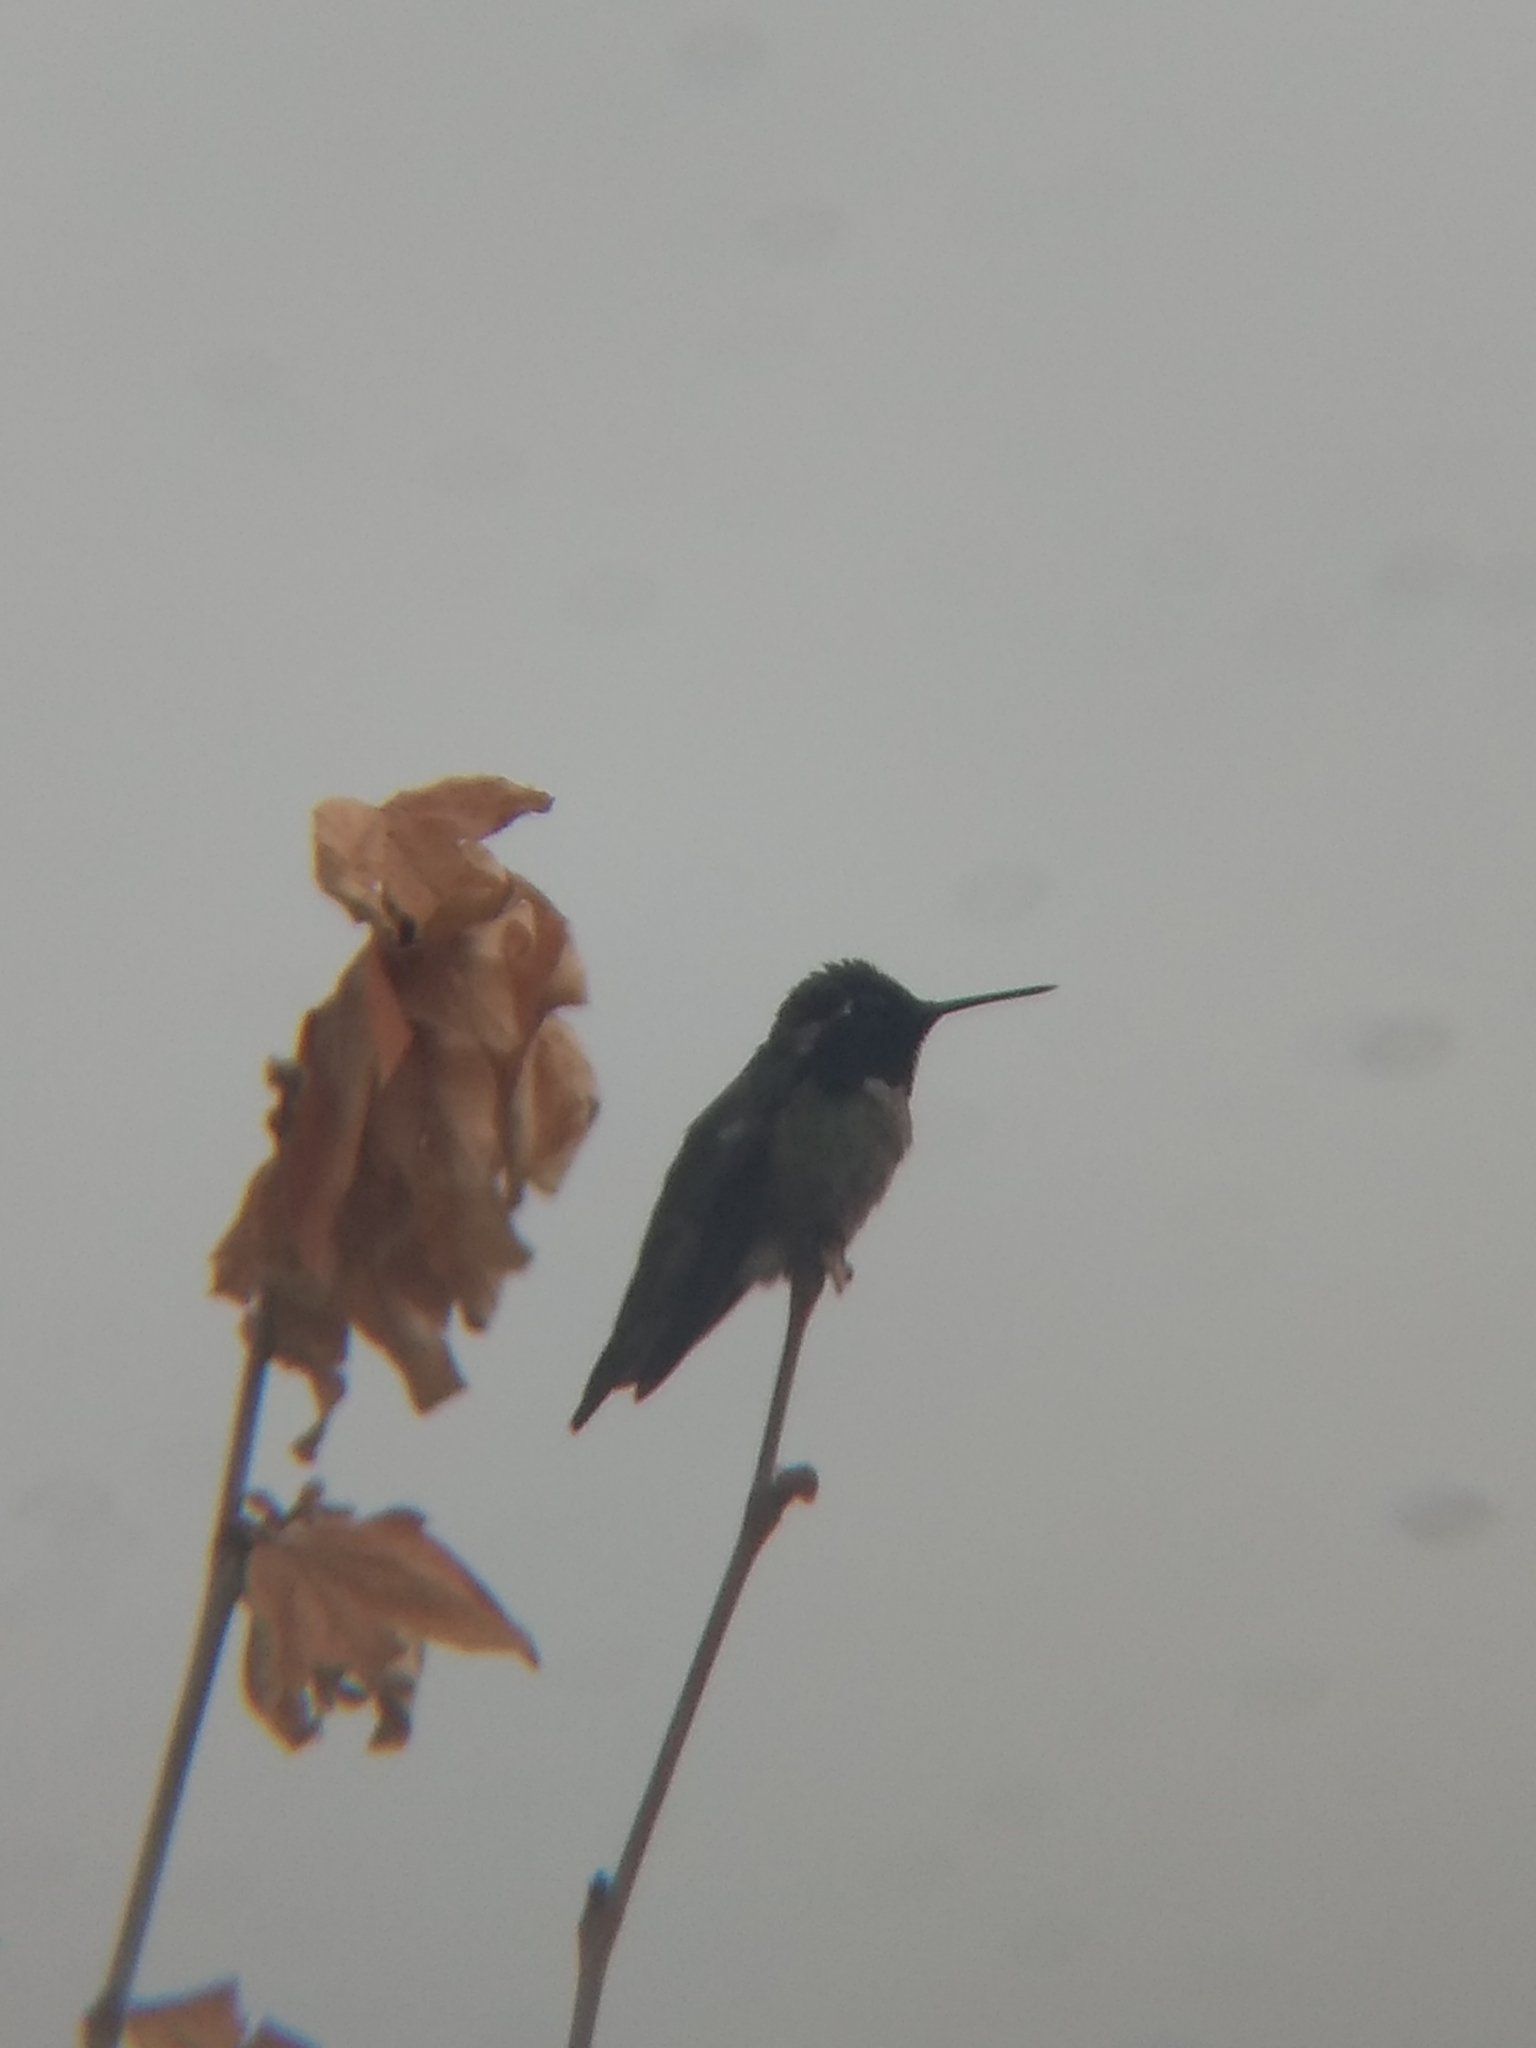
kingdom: Animalia
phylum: Chordata
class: Aves
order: Apodiformes
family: Trochilidae
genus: Calypte
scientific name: Calypte anna
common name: Anna's hummingbird
